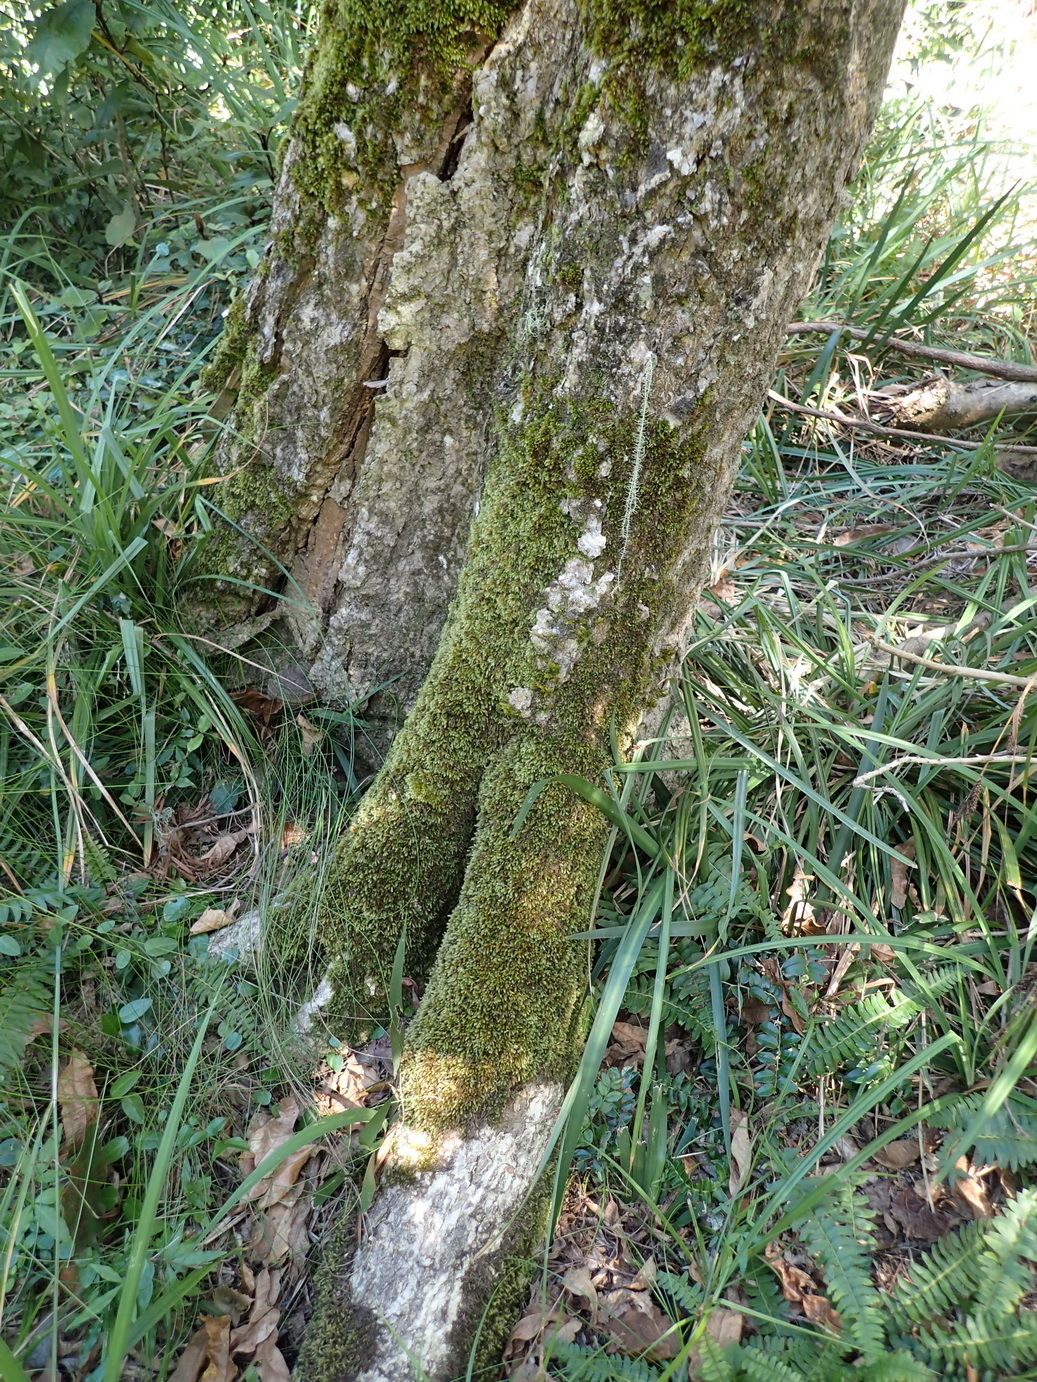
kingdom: Plantae
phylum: Bryophyta
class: Bryopsida
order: Hypnales
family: Brachytheciaceae
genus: Palamocladium
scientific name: Palamocladium leskeoides
